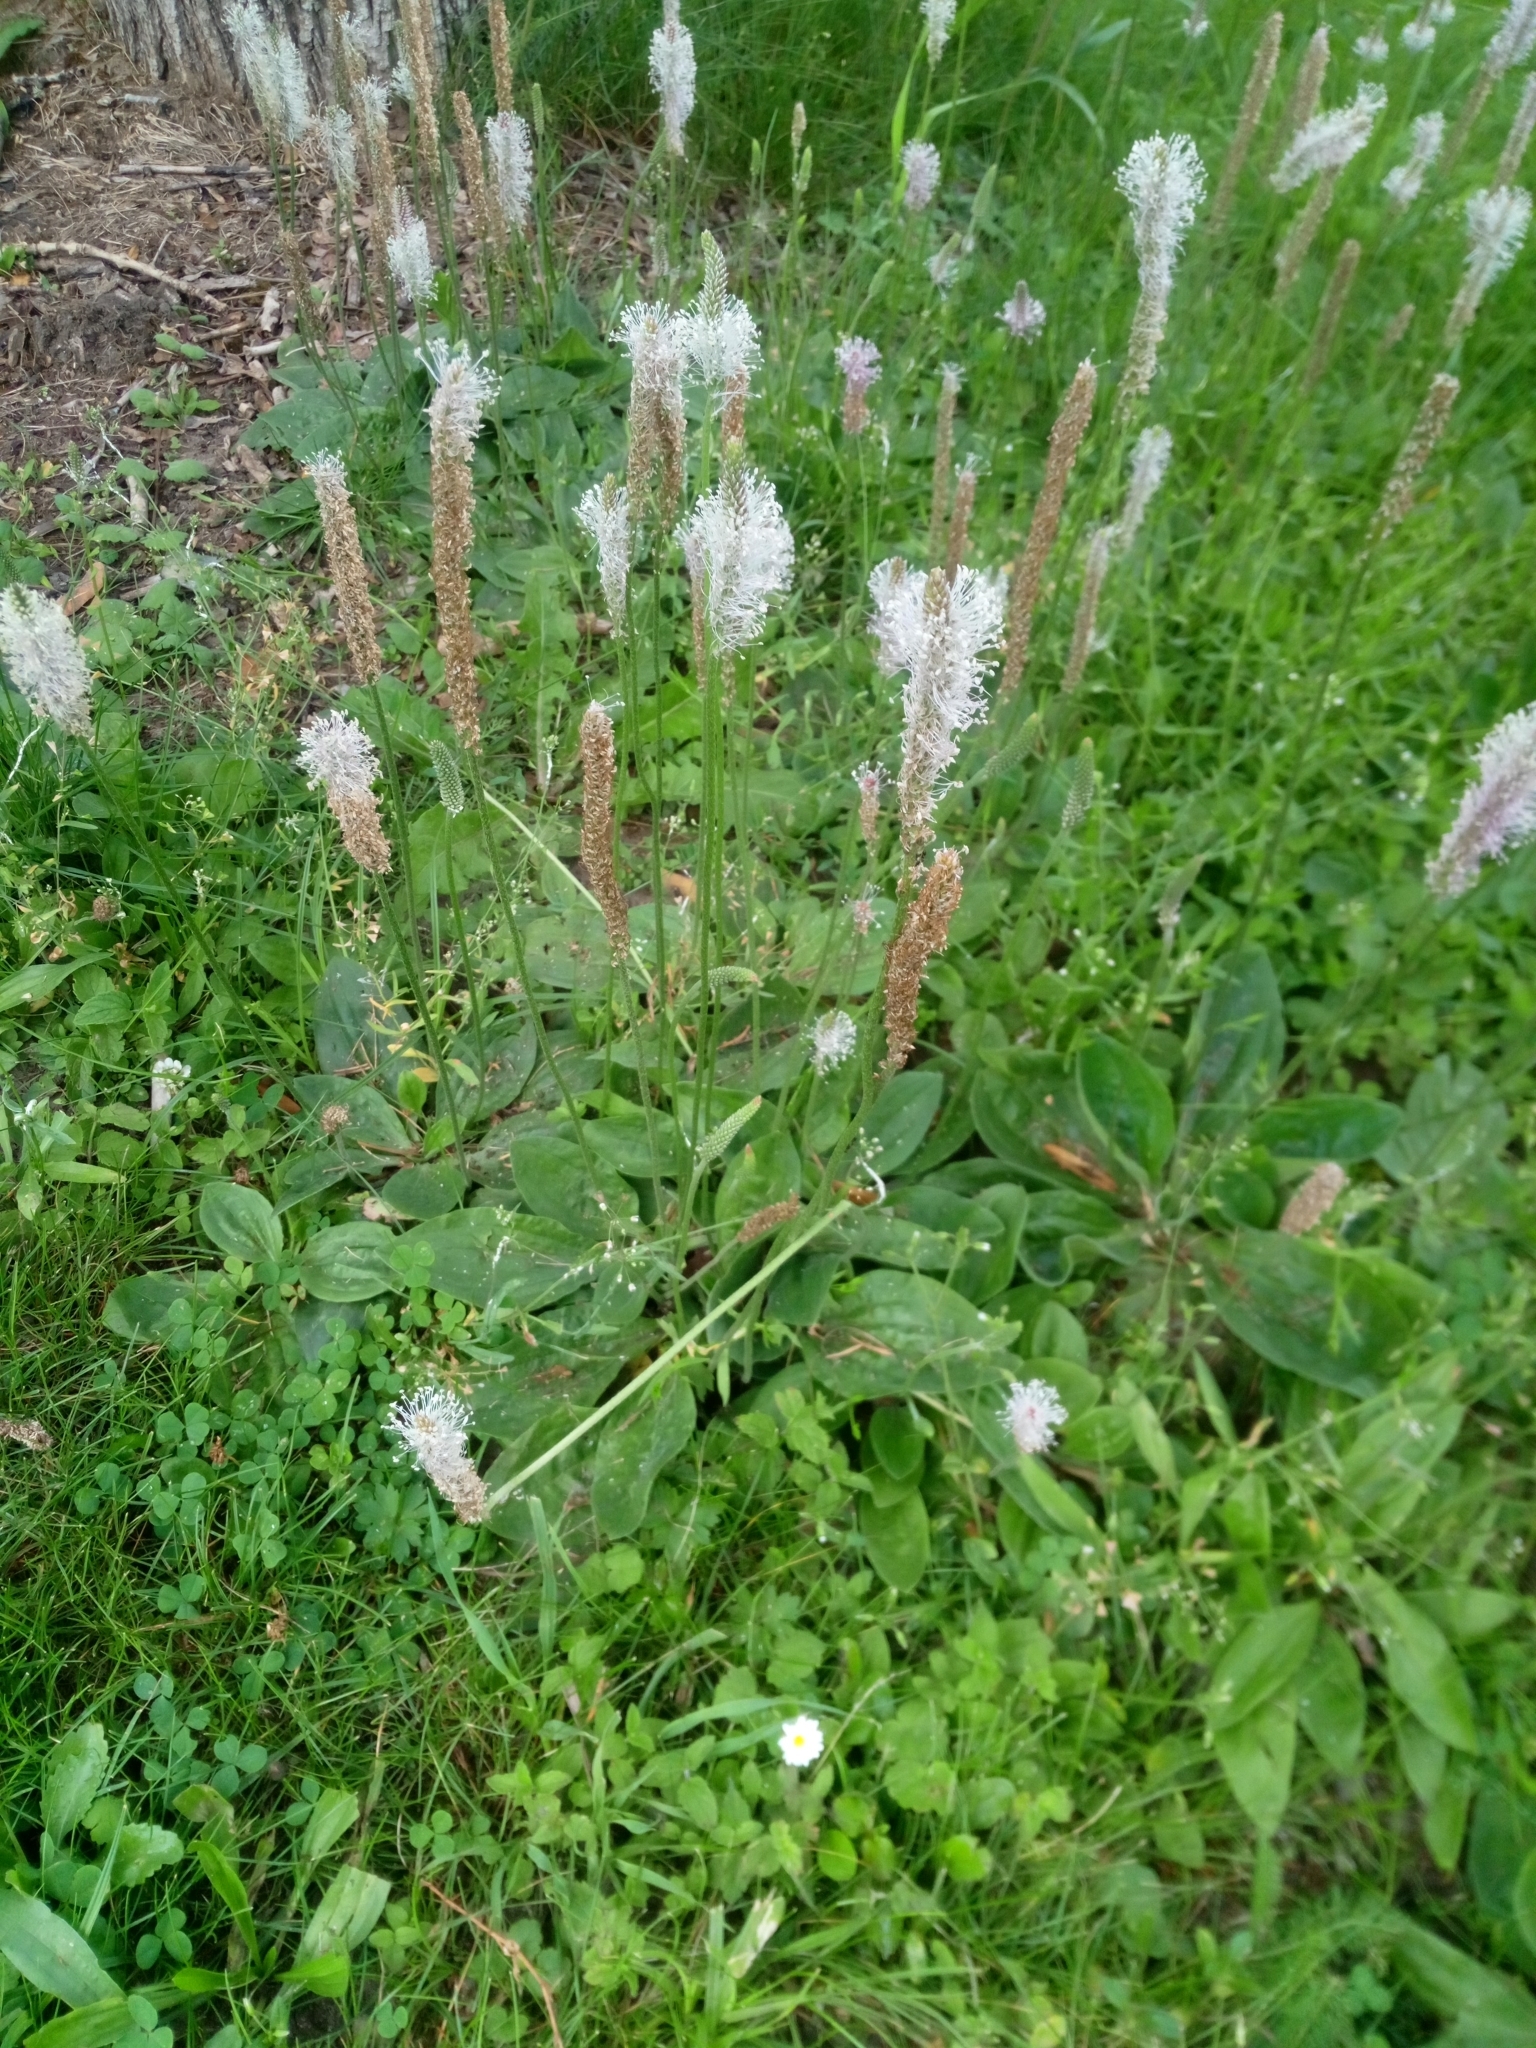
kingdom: Plantae
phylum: Tracheophyta
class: Magnoliopsida
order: Lamiales
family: Plantaginaceae
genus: Plantago
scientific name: Plantago media
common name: Hoary plantain
